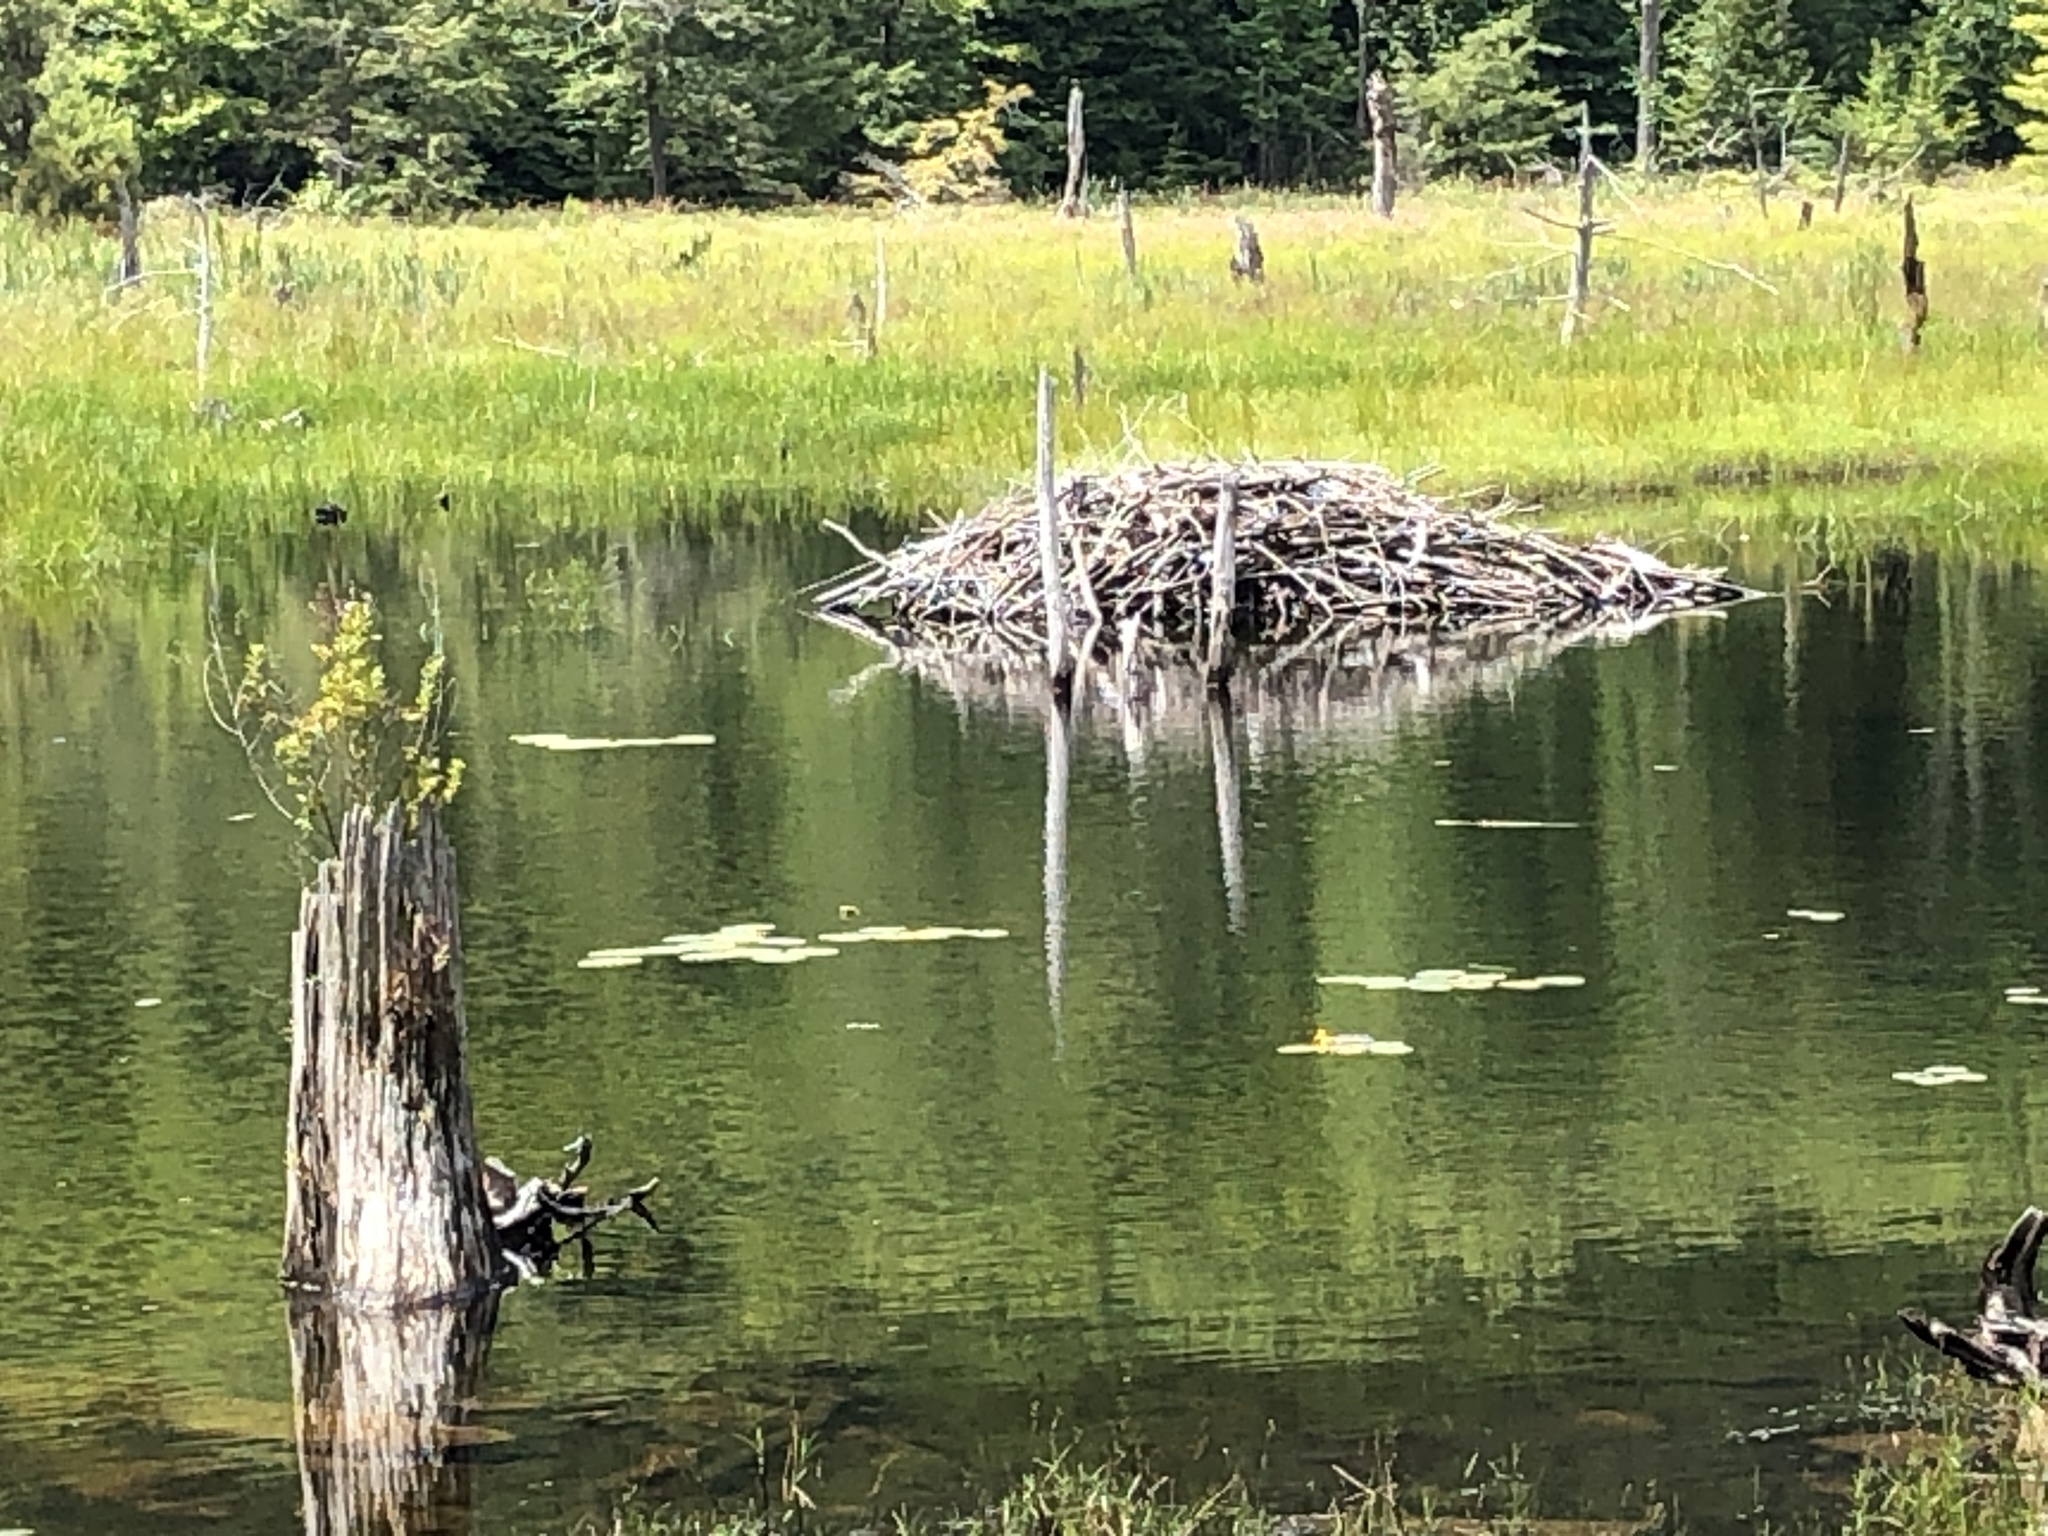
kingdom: Animalia
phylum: Chordata
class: Mammalia
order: Rodentia
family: Castoridae
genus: Castor
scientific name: Castor canadensis
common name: American beaver
